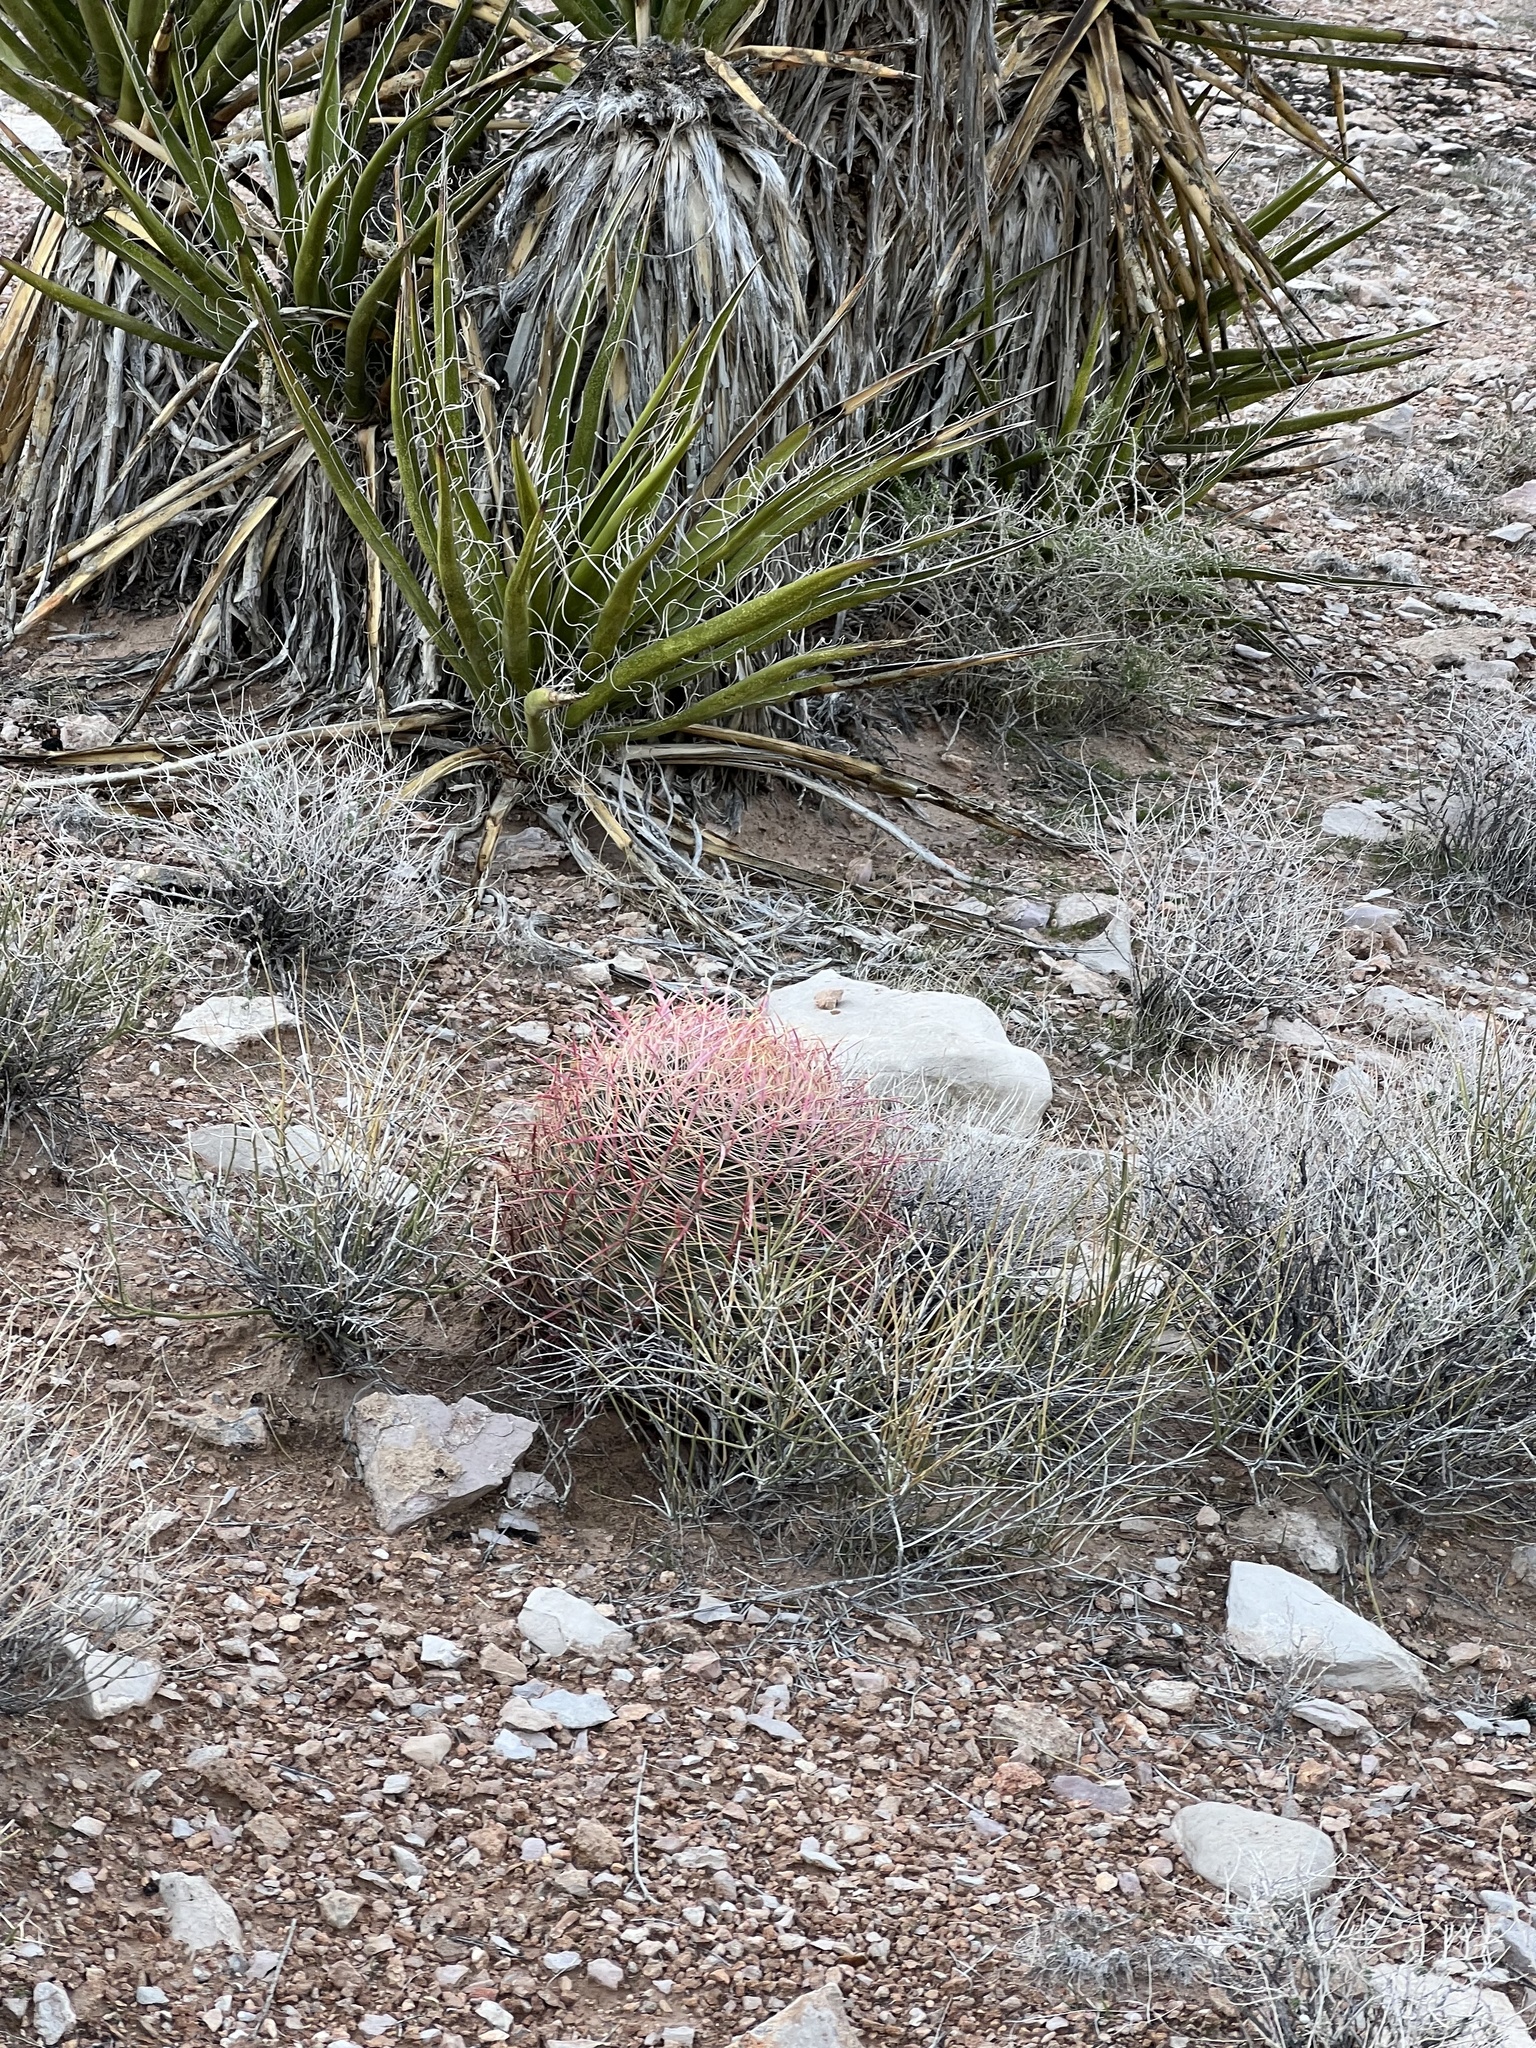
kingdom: Plantae
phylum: Tracheophyta
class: Magnoliopsida
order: Caryophyllales
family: Cactaceae
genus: Ferocactus
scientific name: Ferocactus cylindraceus
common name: California barrel cactus
